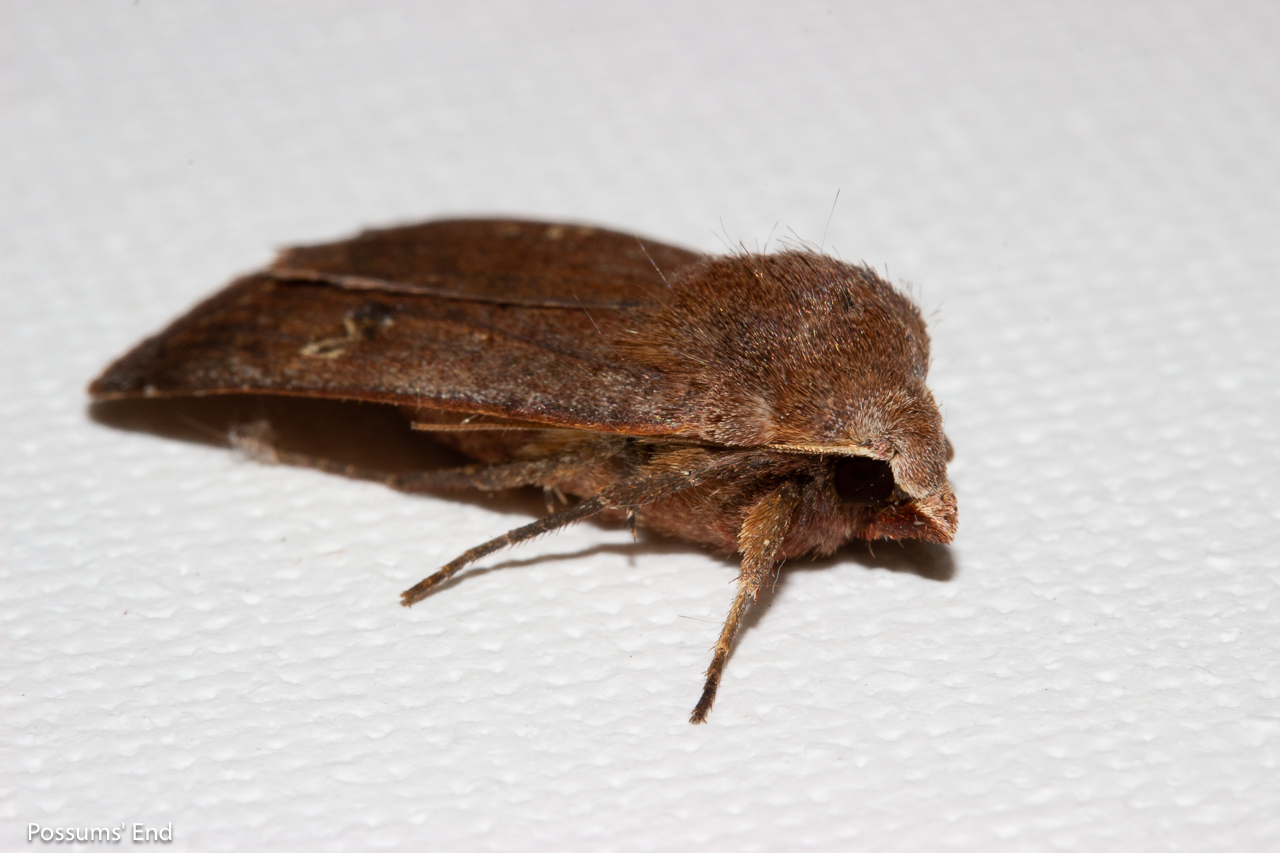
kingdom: Animalia
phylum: Arthropoda
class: Insecta
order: Lepidoptera
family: Noctuidae
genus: Diarsia
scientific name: Diarsia intermixta
